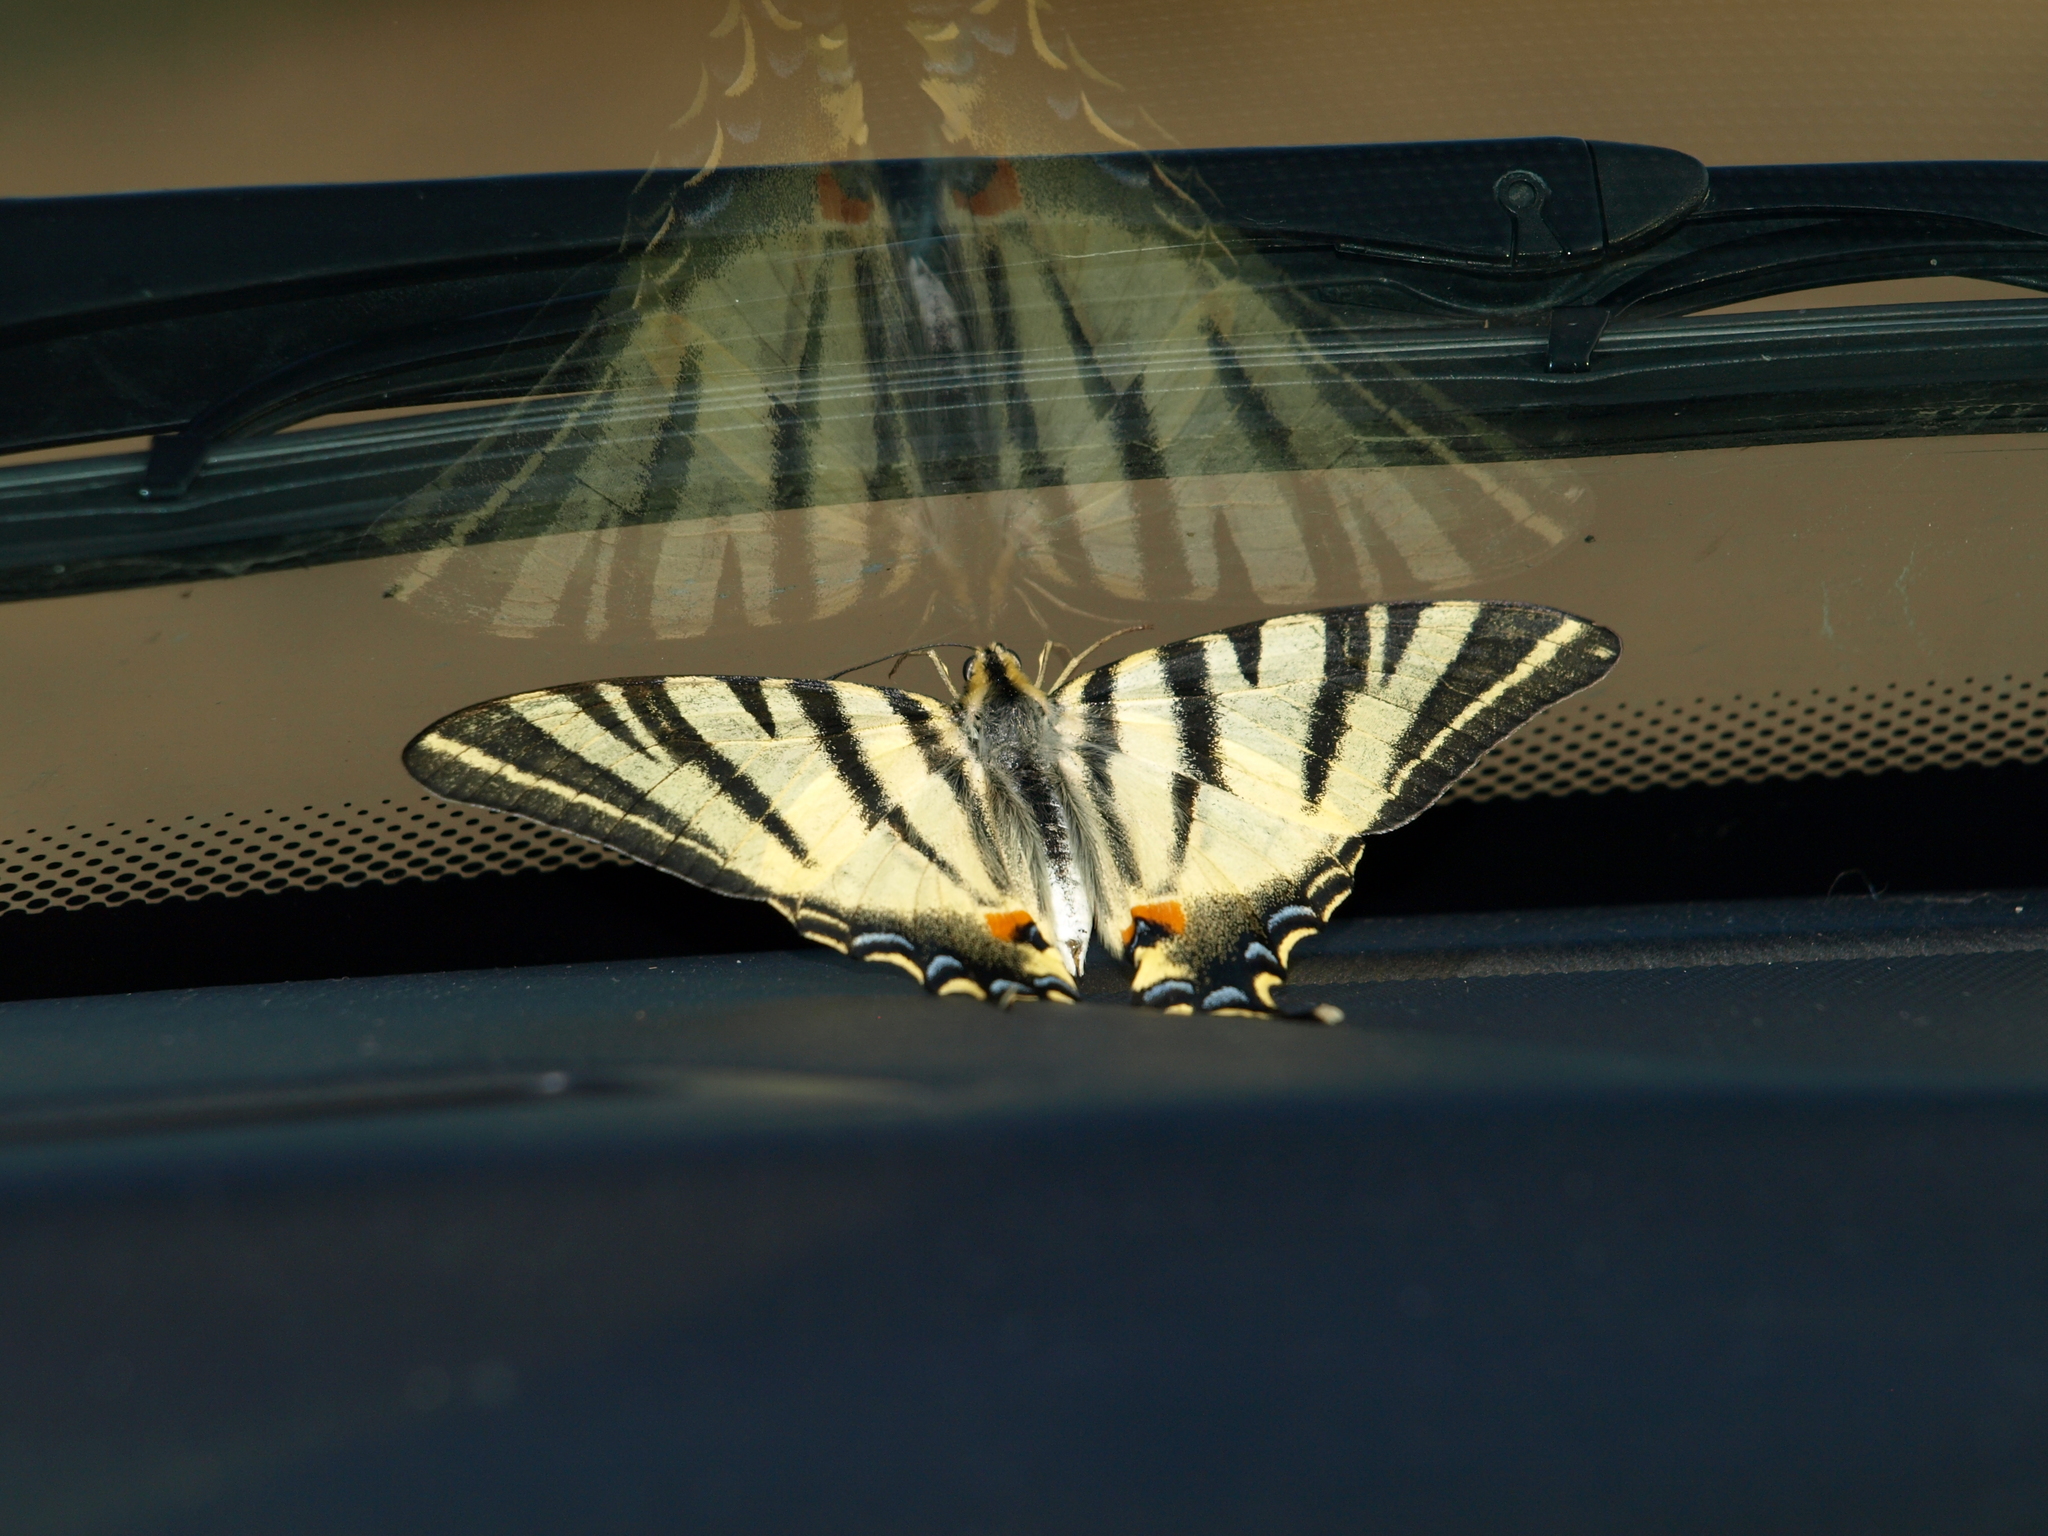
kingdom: Animalia
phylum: Arthropoda
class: Insecta
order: Lepidoptera
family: Papilionidae
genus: Iphiclides
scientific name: Iphiclides podalirius
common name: Scarce swallowtail
